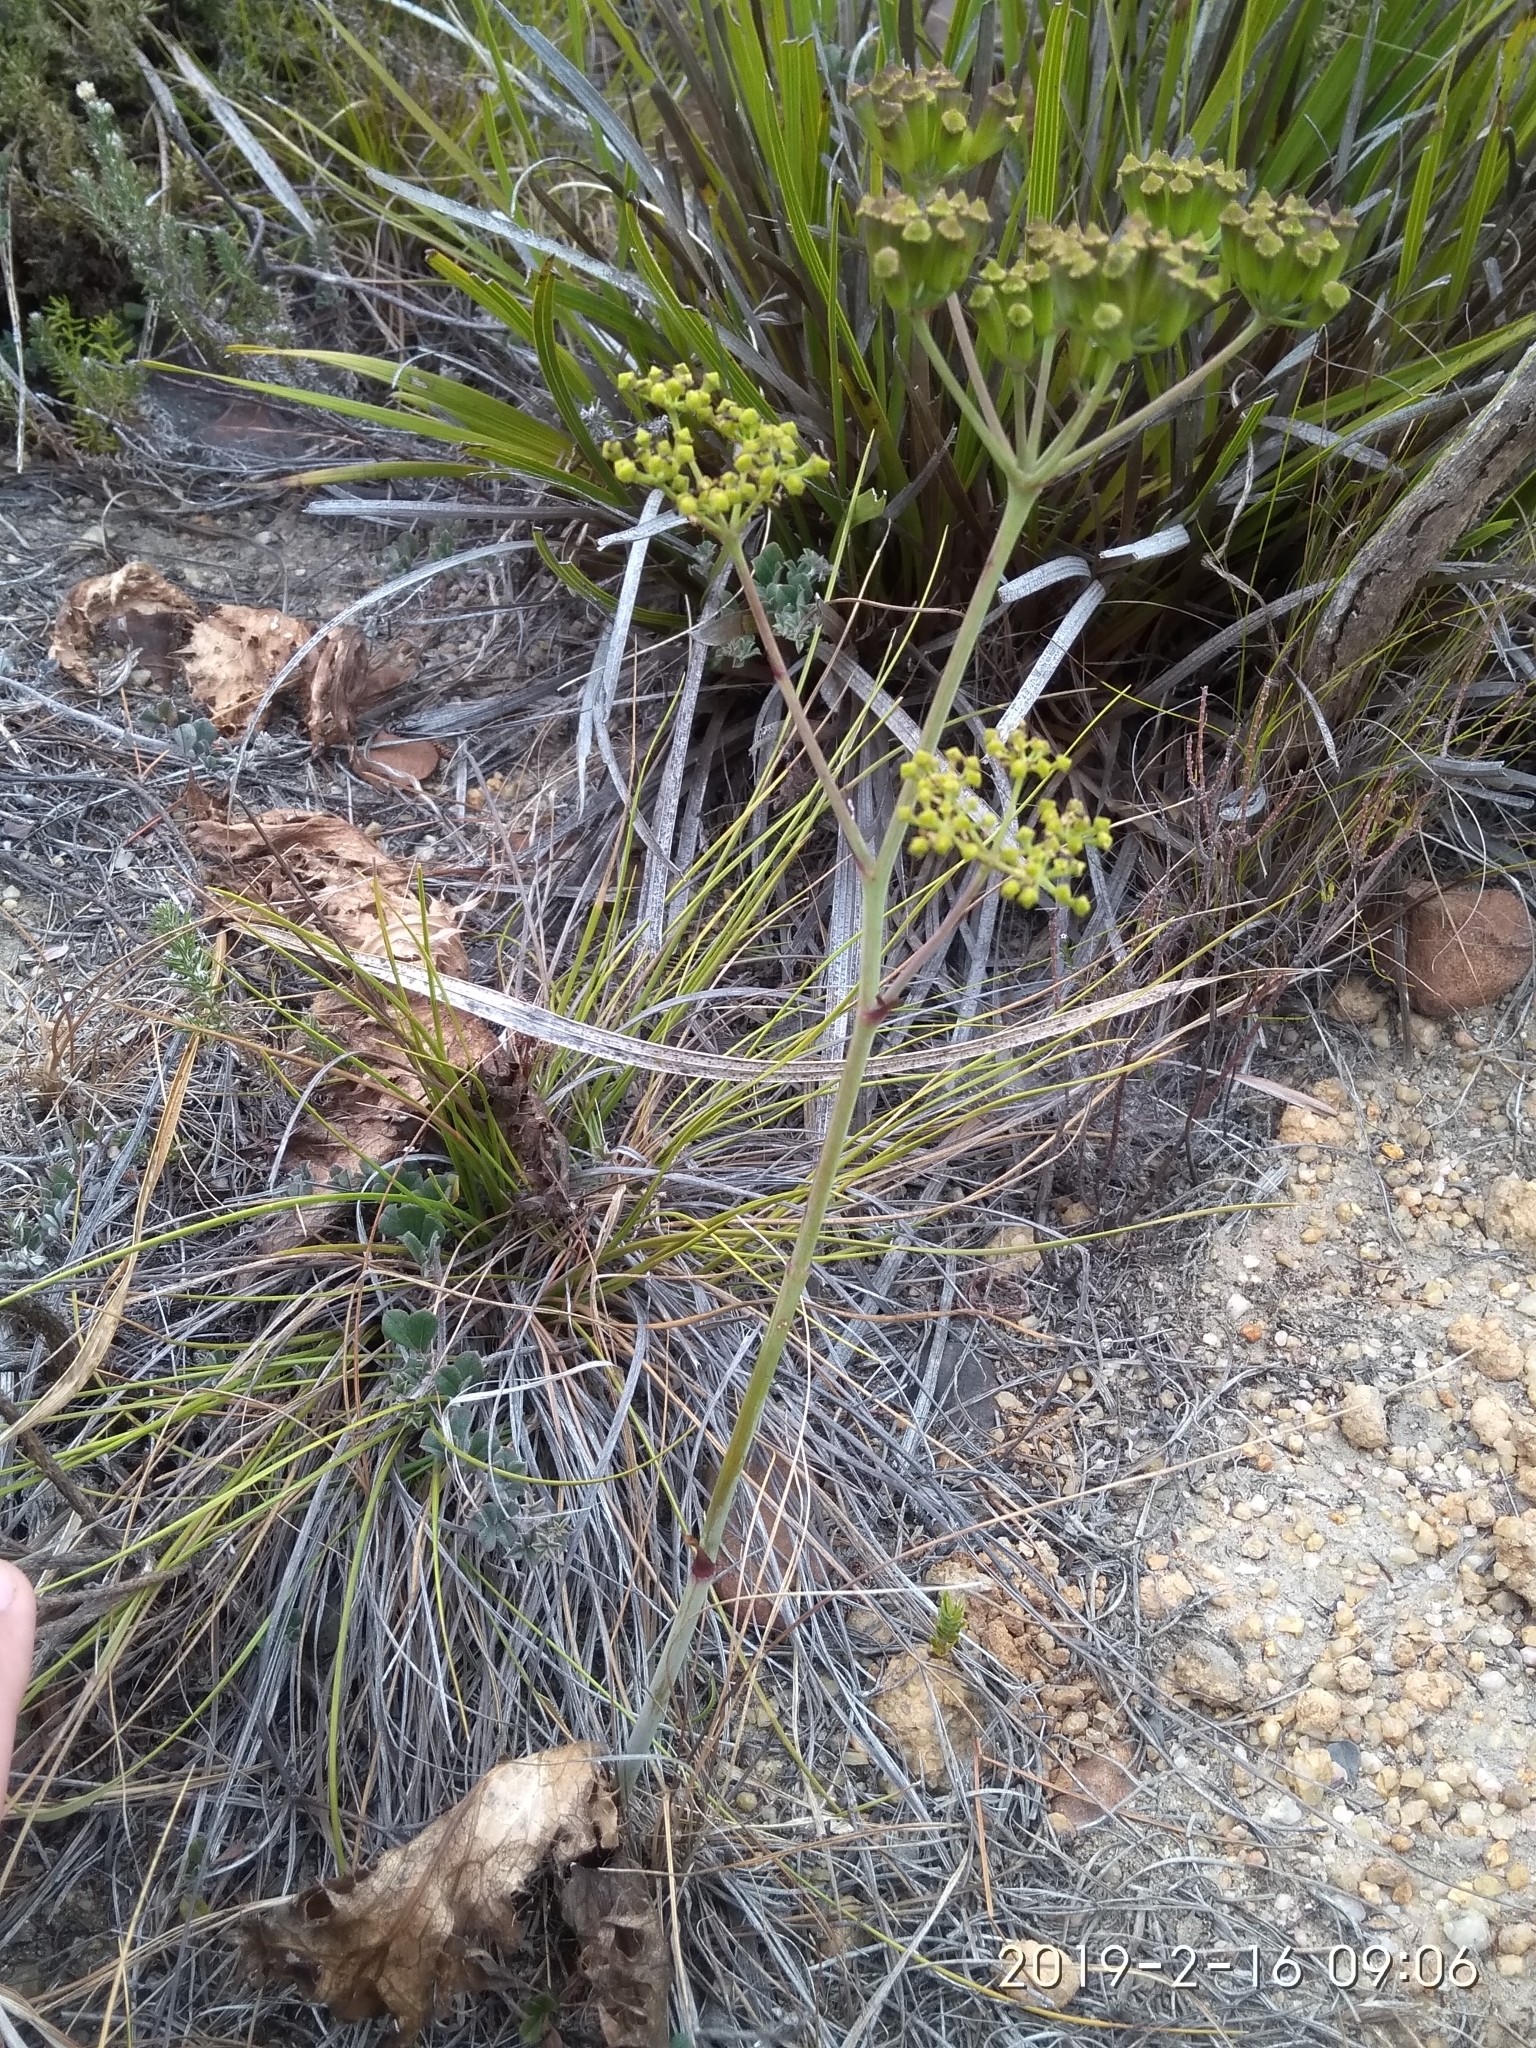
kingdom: Plantae
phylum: Tracheophyta
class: Magnoliopsida
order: Apiales
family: Apiaceae
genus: Lichtensteinia
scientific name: Lichtensteinia lacera
